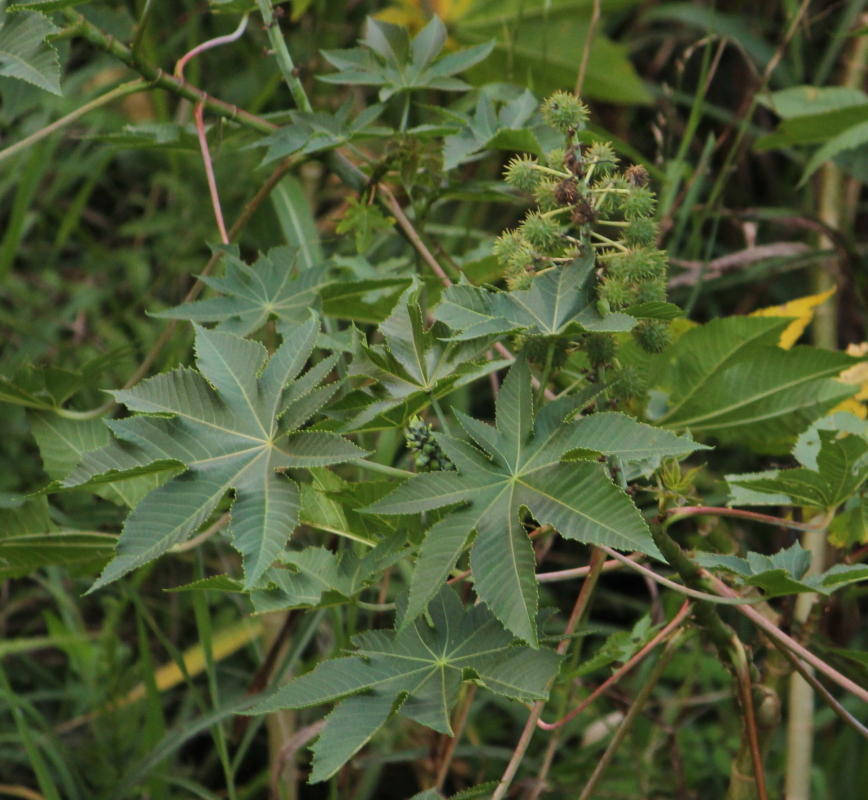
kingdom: Plantae
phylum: Tracheophyta
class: Magnoliopsida
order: Malpighiales
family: Euphorbiaceae
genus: Ricinus
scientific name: Ricinus communis
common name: Castor-oil-plant
